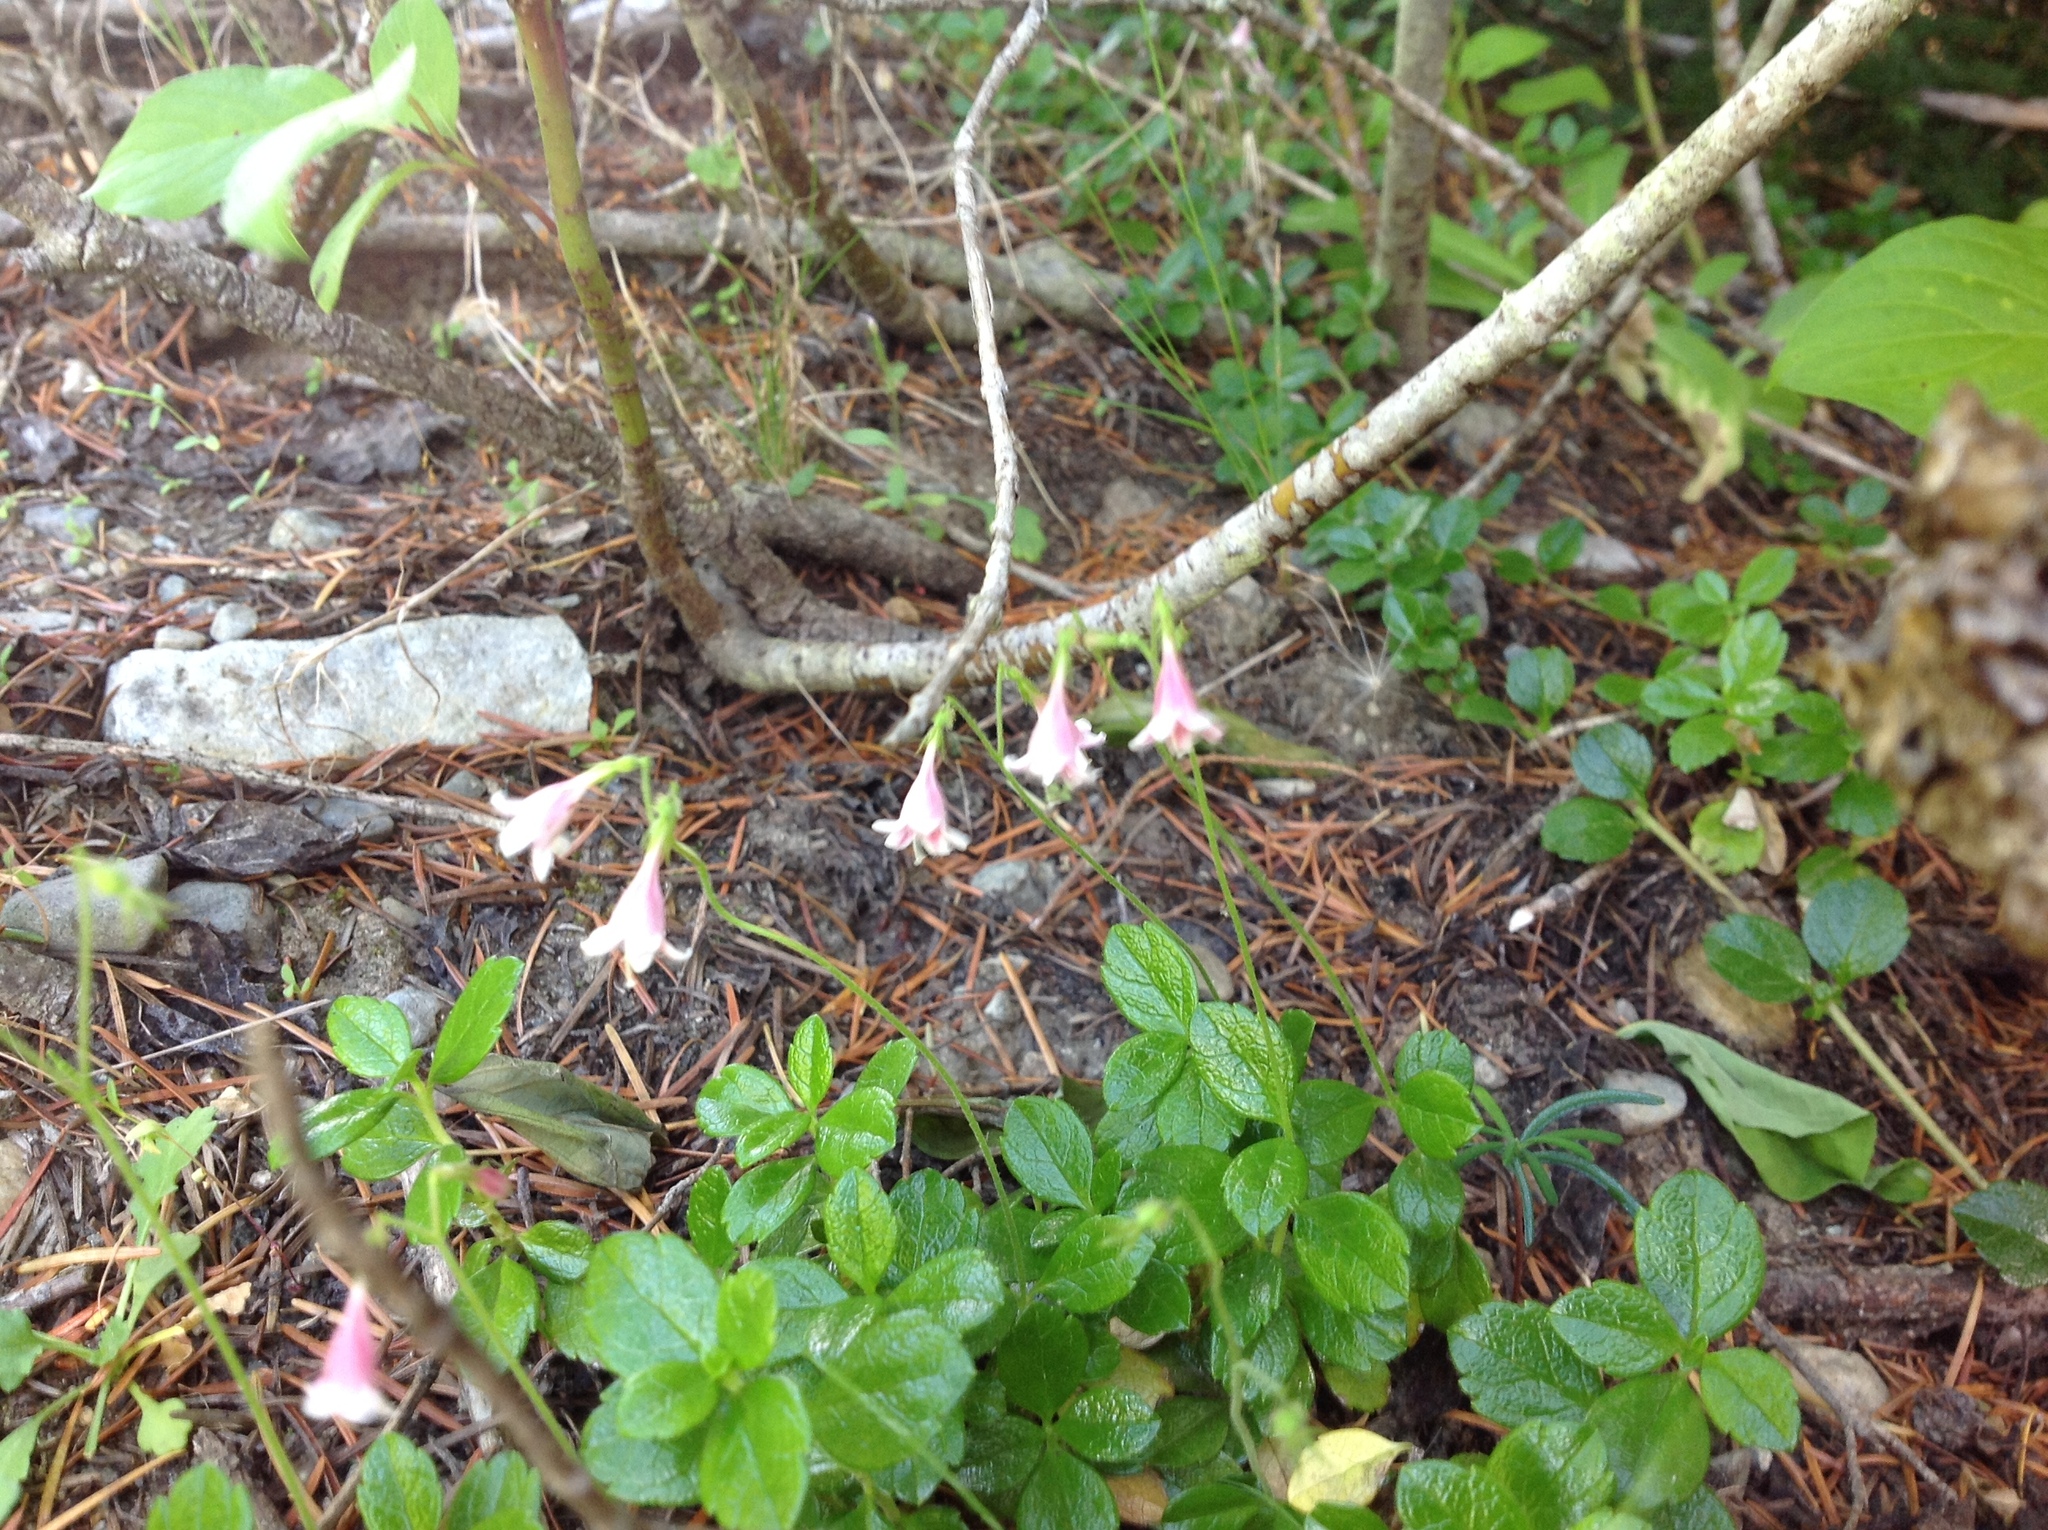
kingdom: Plantae
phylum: Tracheophyta
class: Magnoliopsida
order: Dipsacales
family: Caprifoliaceae
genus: Linnaea
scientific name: Linnaea borealis
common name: Twinflower
